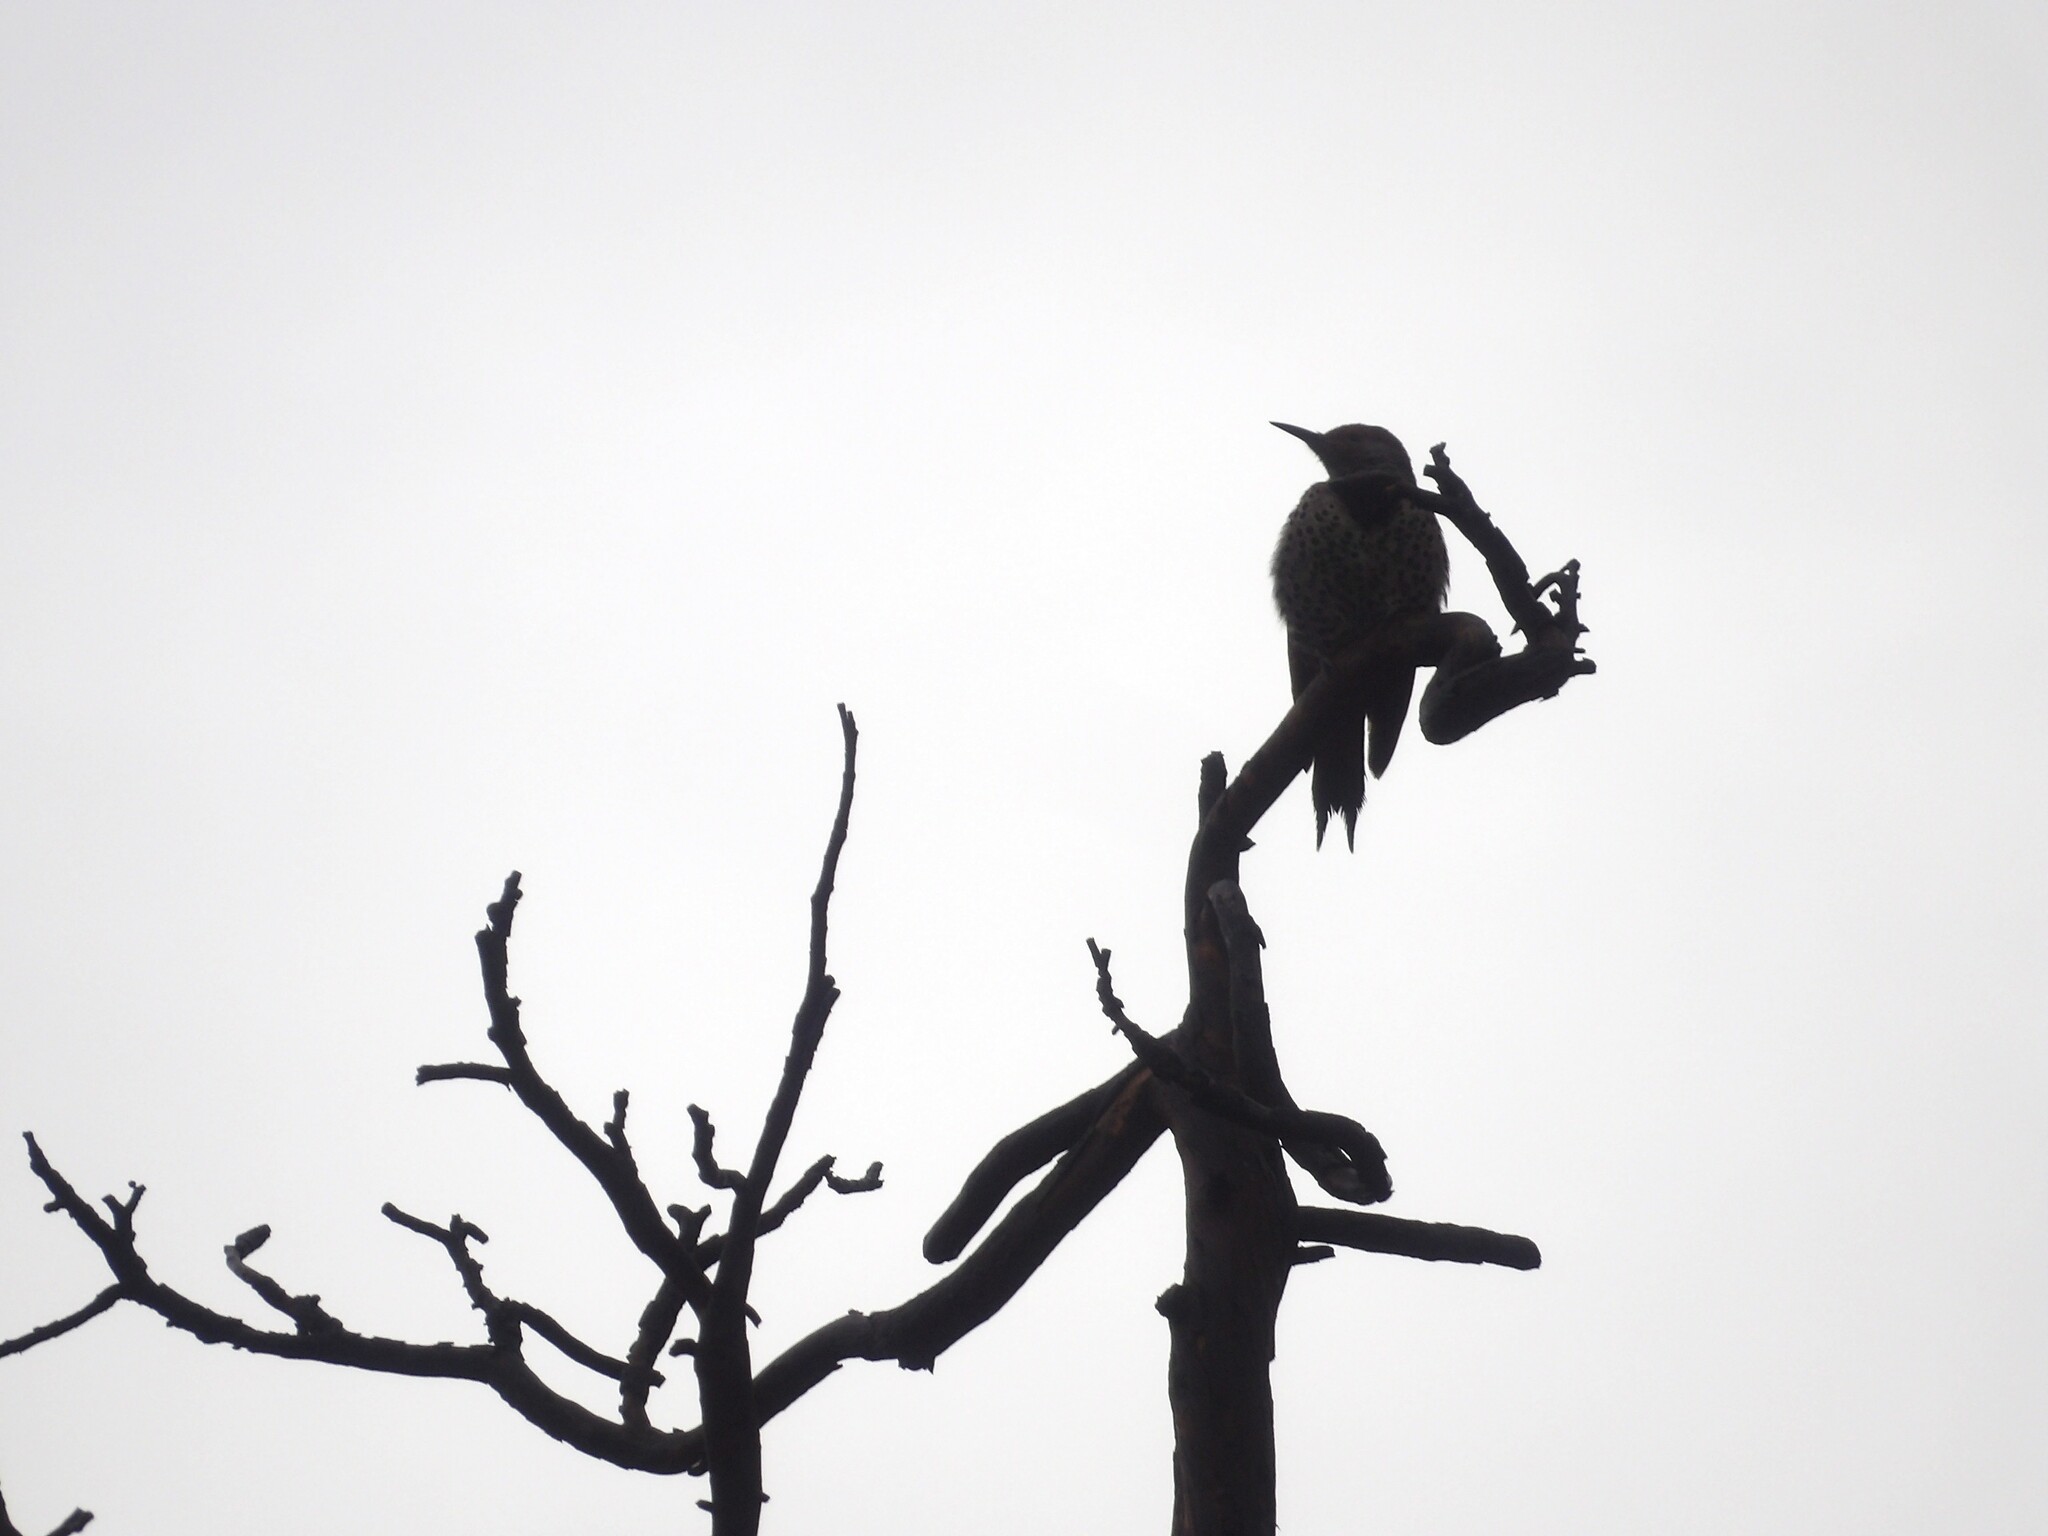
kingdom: Animalia
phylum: Chordata
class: Aves
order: Piciformes
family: Picidae
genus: Colaptes
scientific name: Colaptes auratus
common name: Northern flicker
